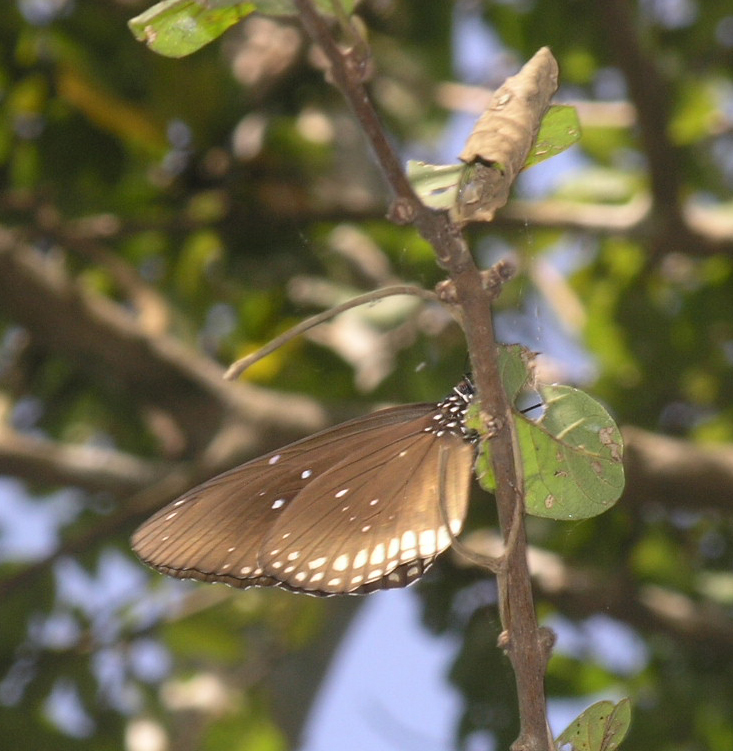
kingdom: Animalia
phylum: Arthropoda
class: Insecta
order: Lepidoptera
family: Nymphalidae
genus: Euploea
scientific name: Euploea core
